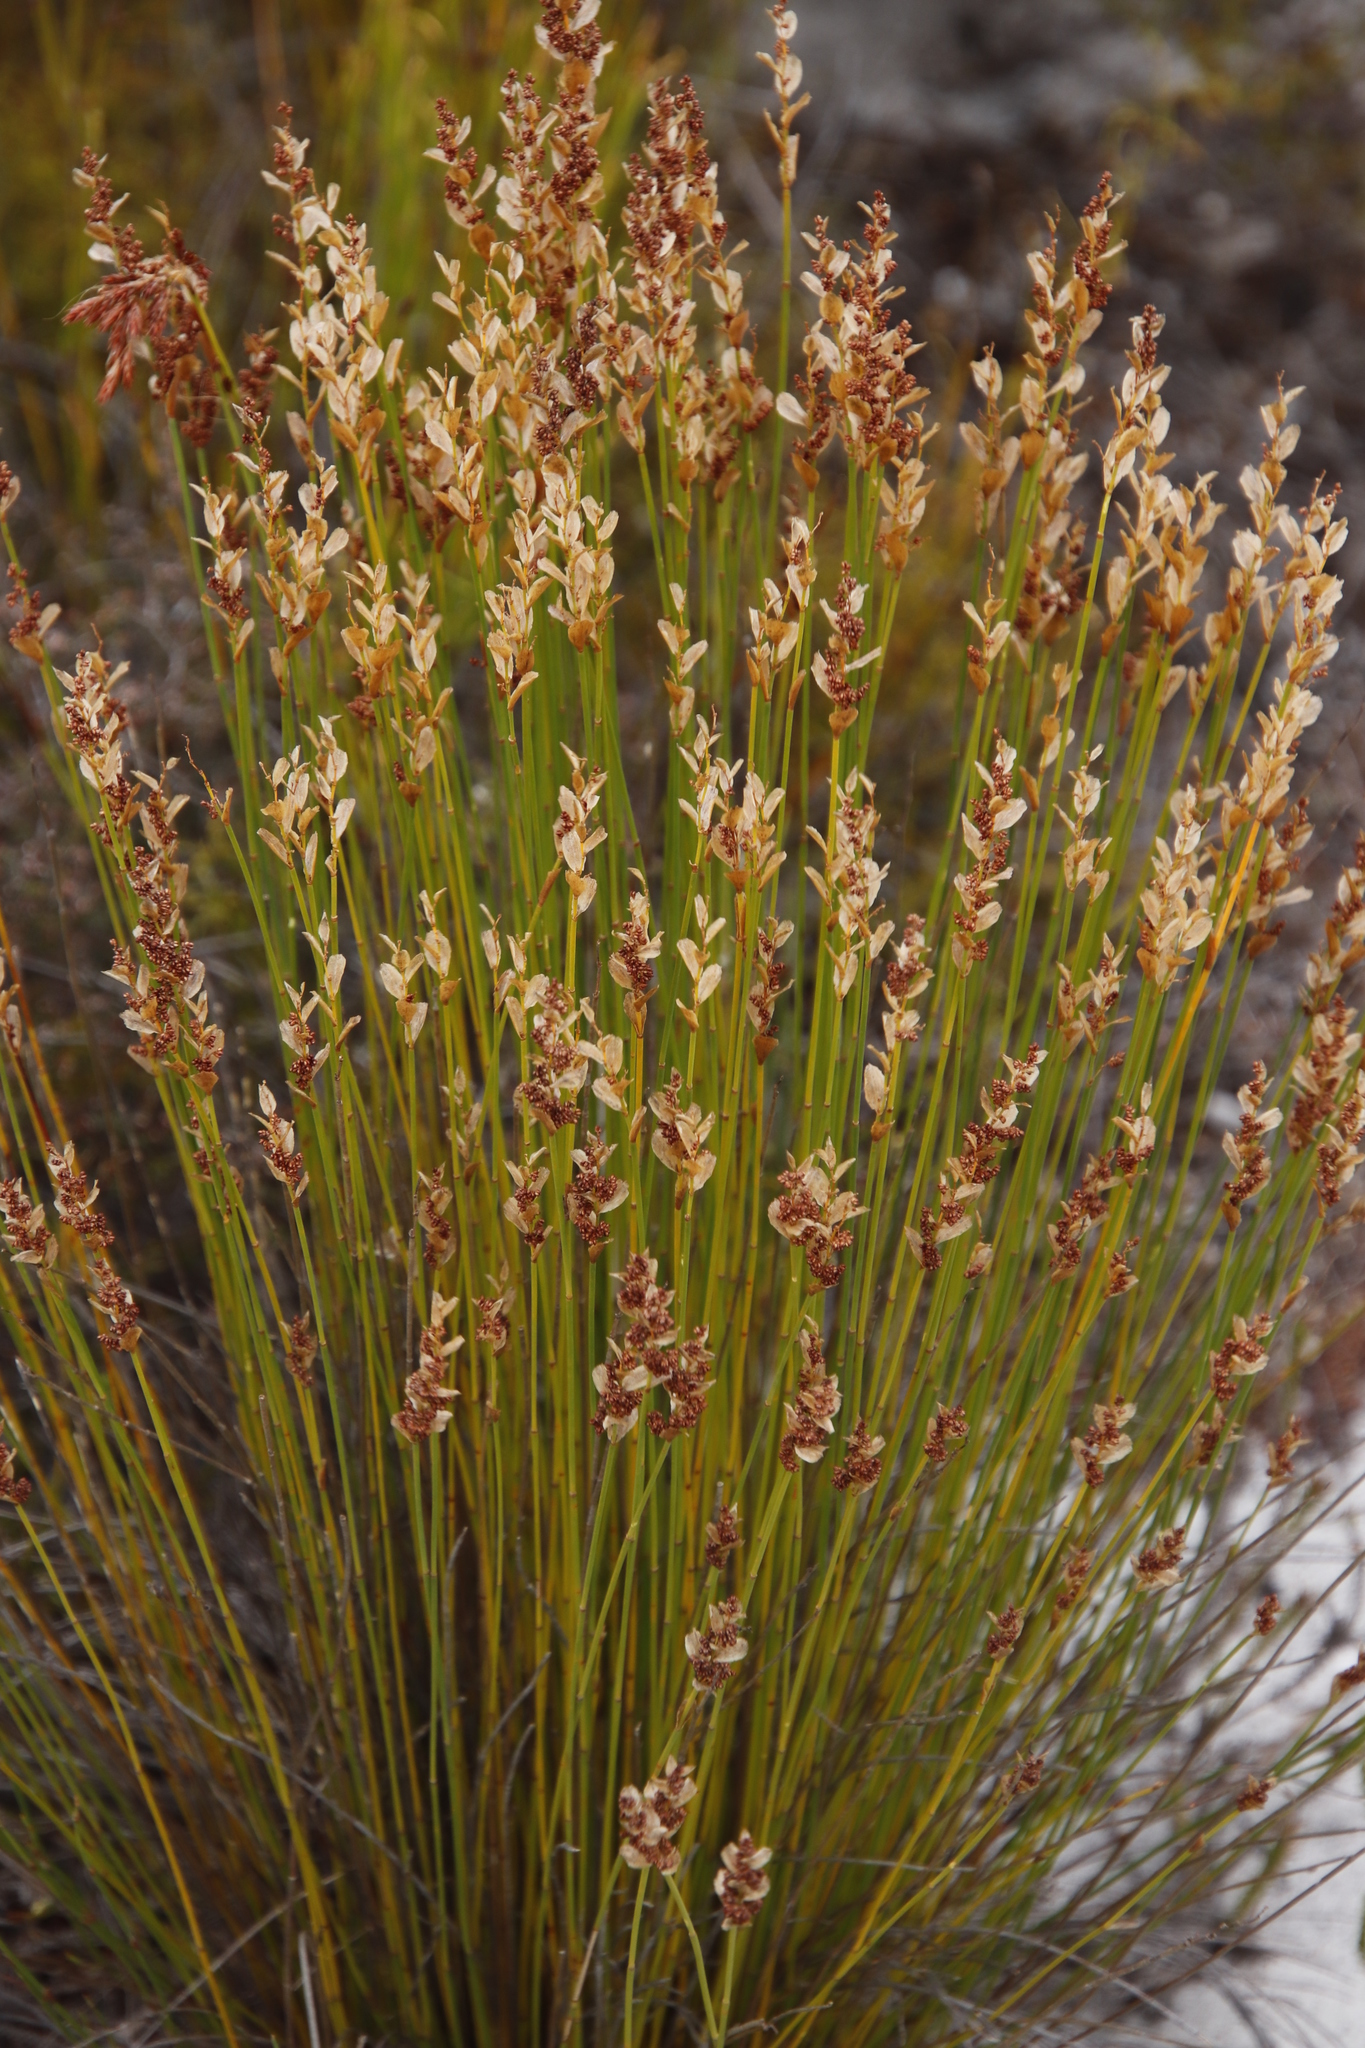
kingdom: Plantae
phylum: Tracheophyta
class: Liliopsida
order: Poales
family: Restionaceae
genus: Elegia
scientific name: Elegia filacea
